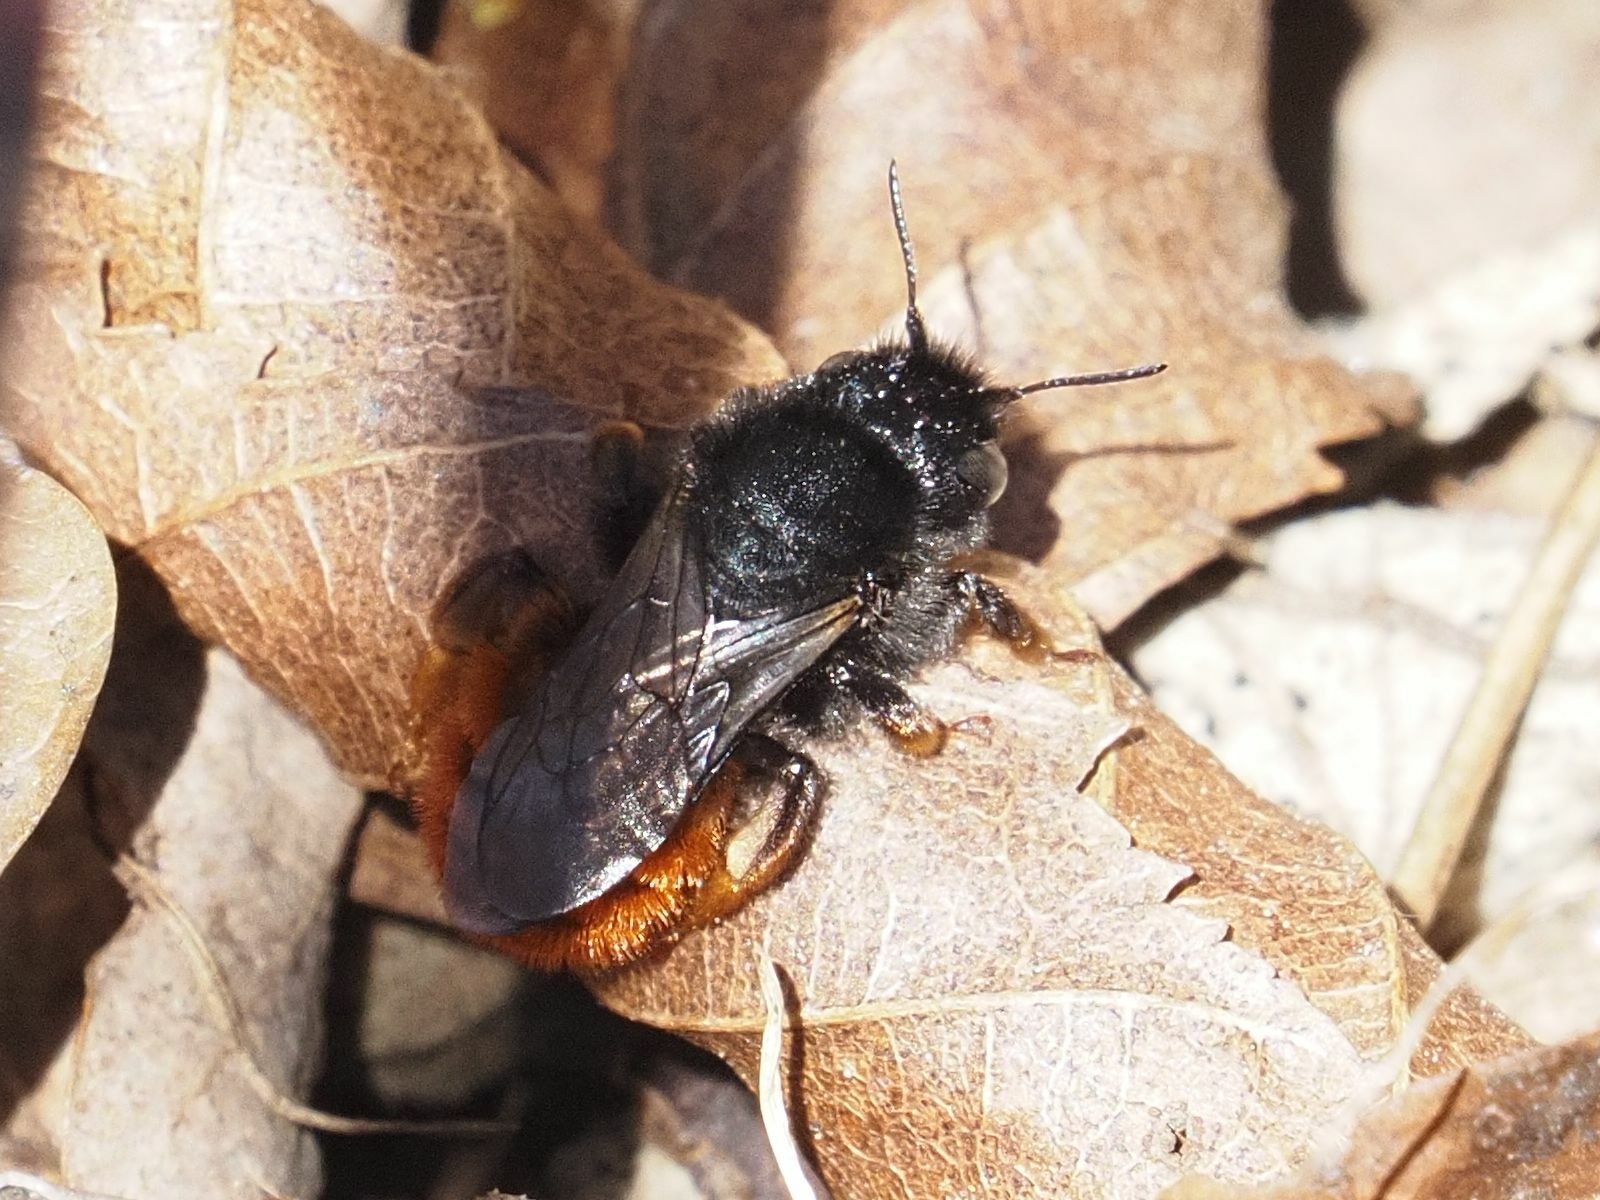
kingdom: Animalia
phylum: Arthropoda
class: Insecta
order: Hymenoptera
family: Megachilidae
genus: Osmia
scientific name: Osmia bicolor
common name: Red-tailed mason bee
